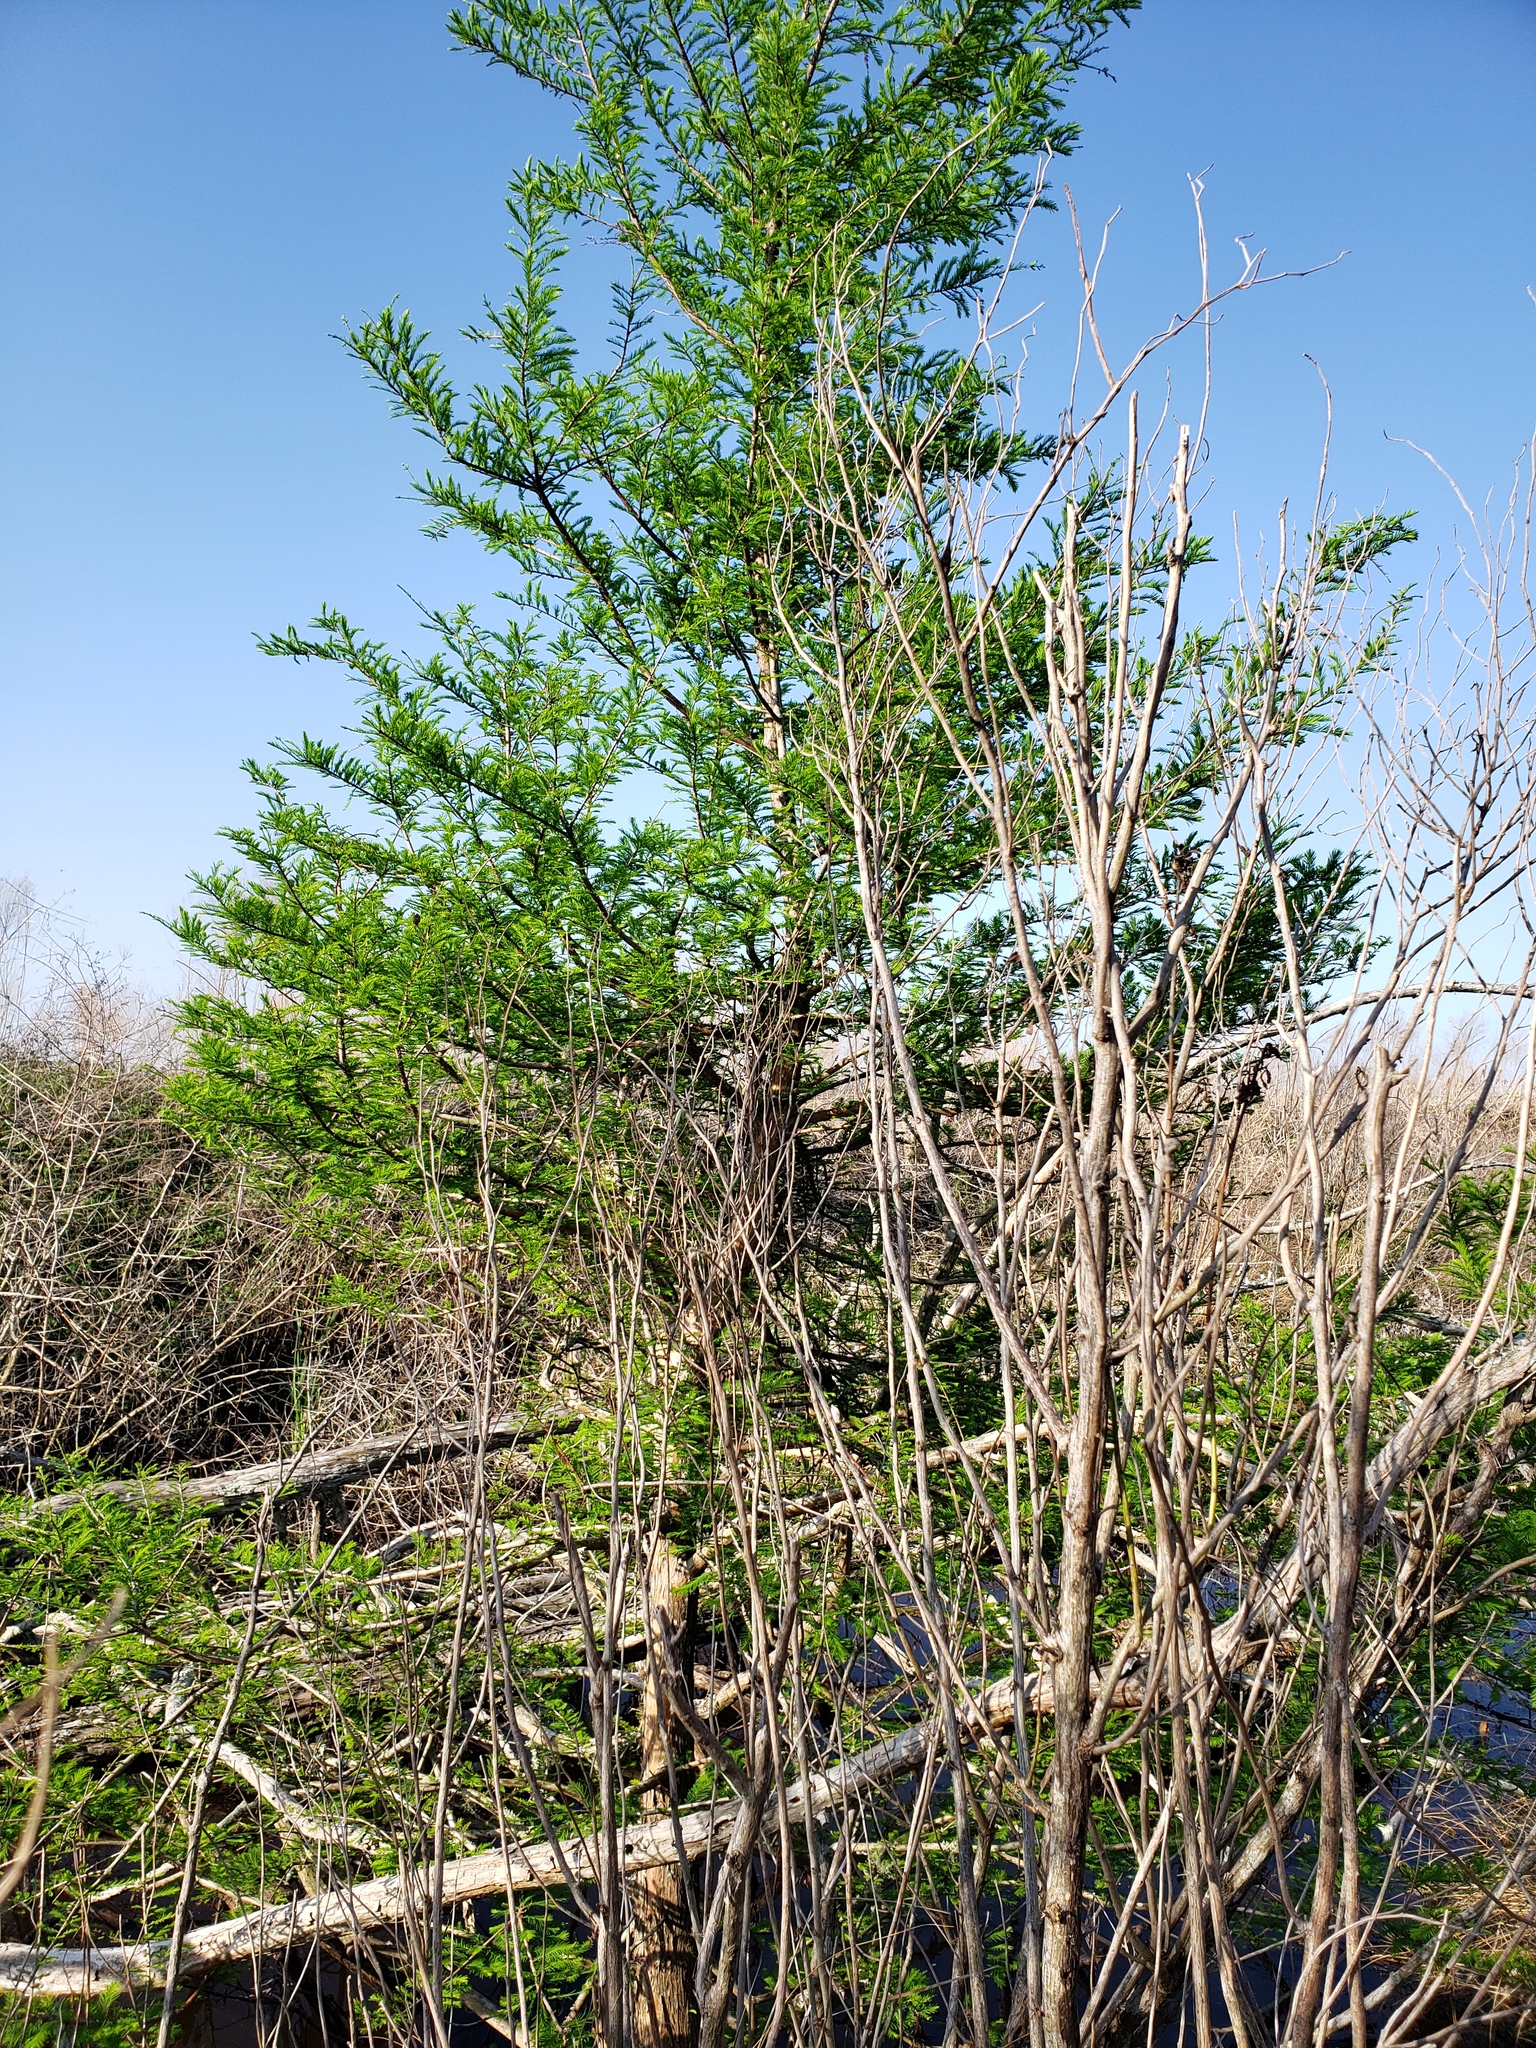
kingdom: Plantae
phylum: Tracheophyta
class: Pinopsida
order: Pinales
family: Cupressaceae
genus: Taxodium
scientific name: Taxodium distichum
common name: Bald cypress
